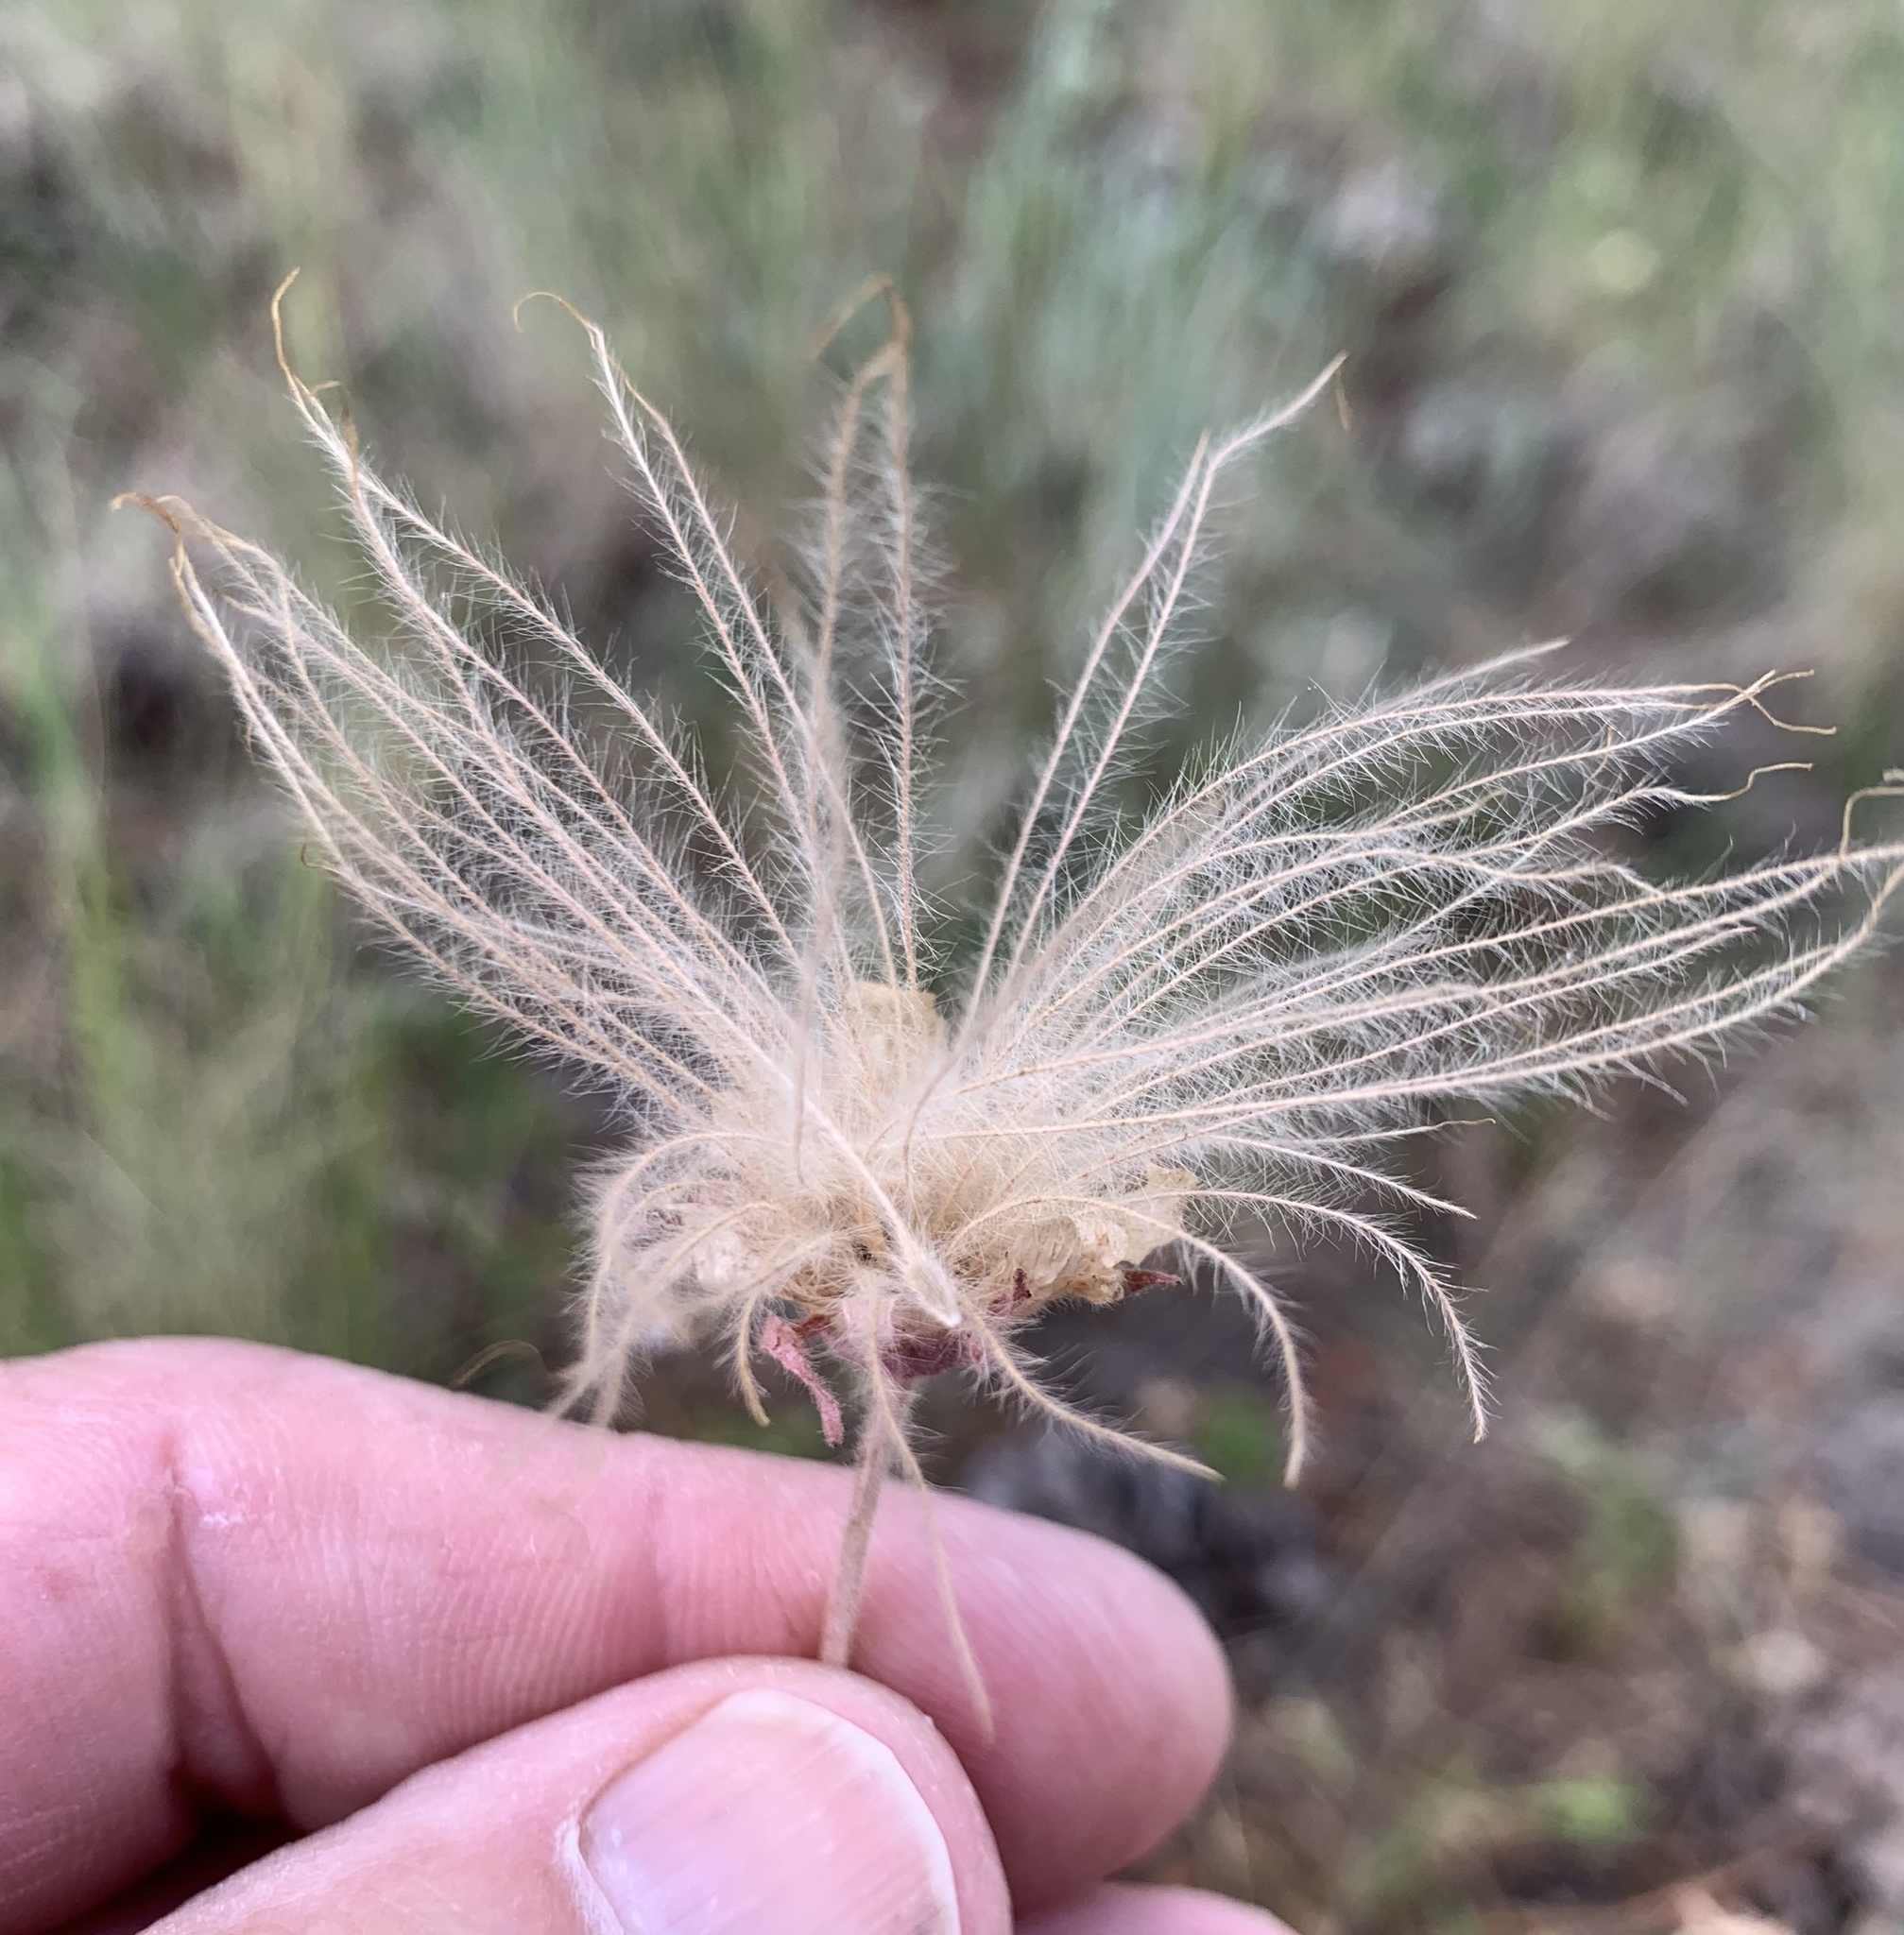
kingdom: Plantae
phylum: Tracheophyta
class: Magnoliopsida
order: Rosales
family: Rosaceae
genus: Fallugia
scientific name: Fallugia paradoxa
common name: Apache-plume
